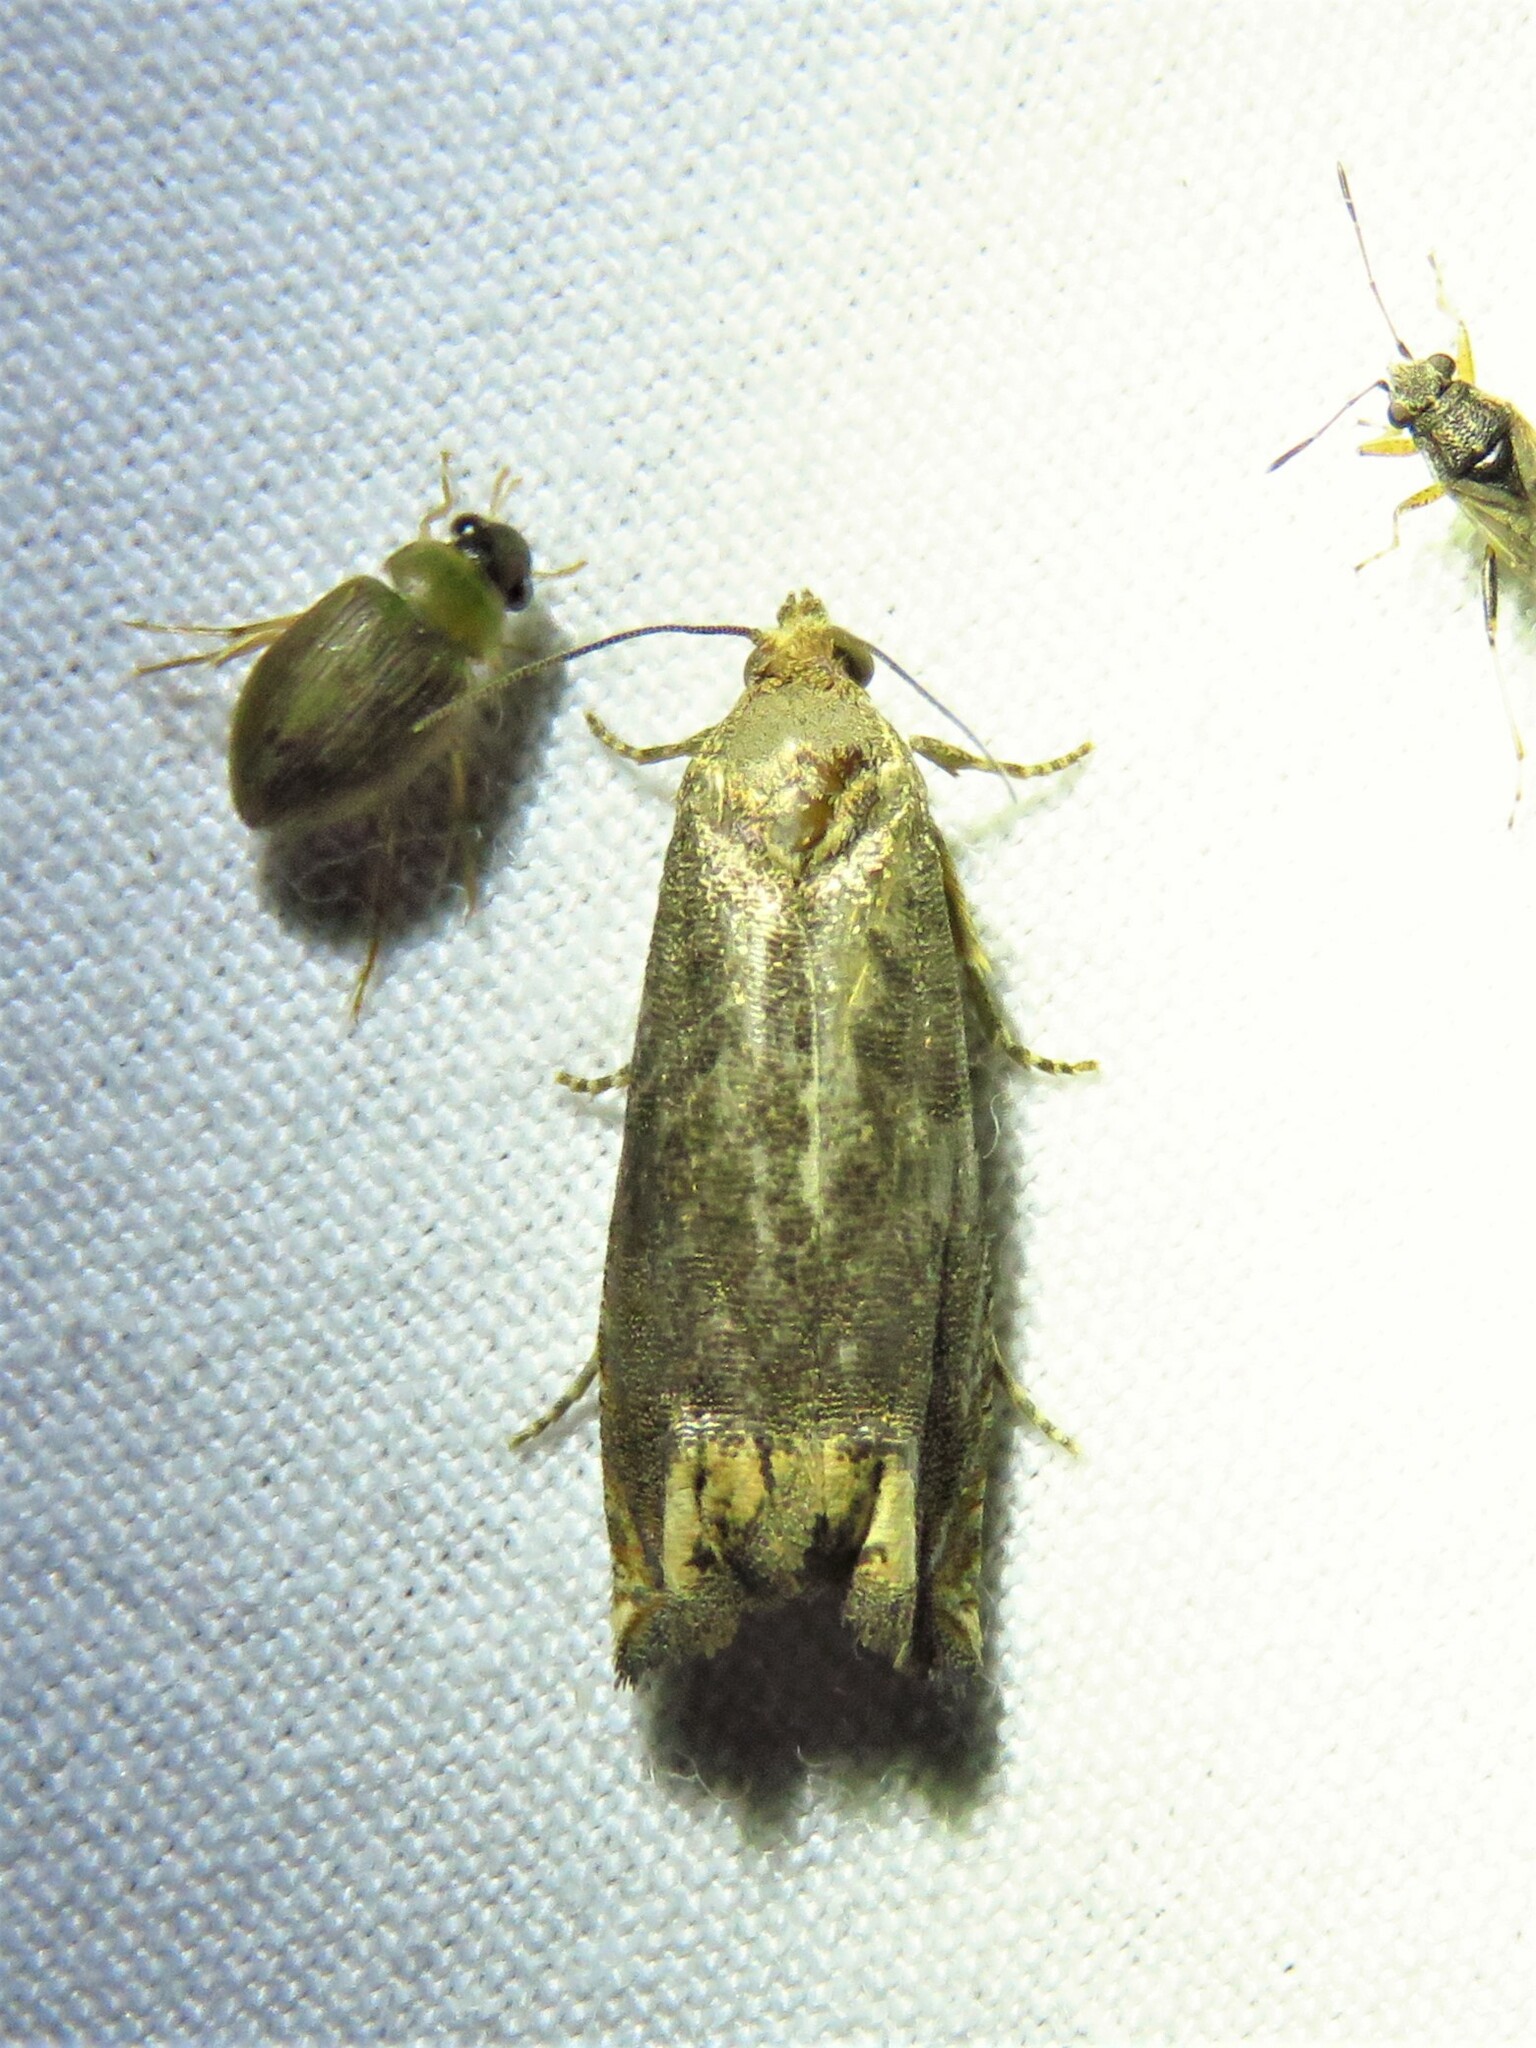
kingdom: Animalia
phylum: Arthropoda
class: Insecta
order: Lepidoptera
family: Tortricidae
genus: Epiblema
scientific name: Epiblema strenuana
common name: Ragweed borer moth
